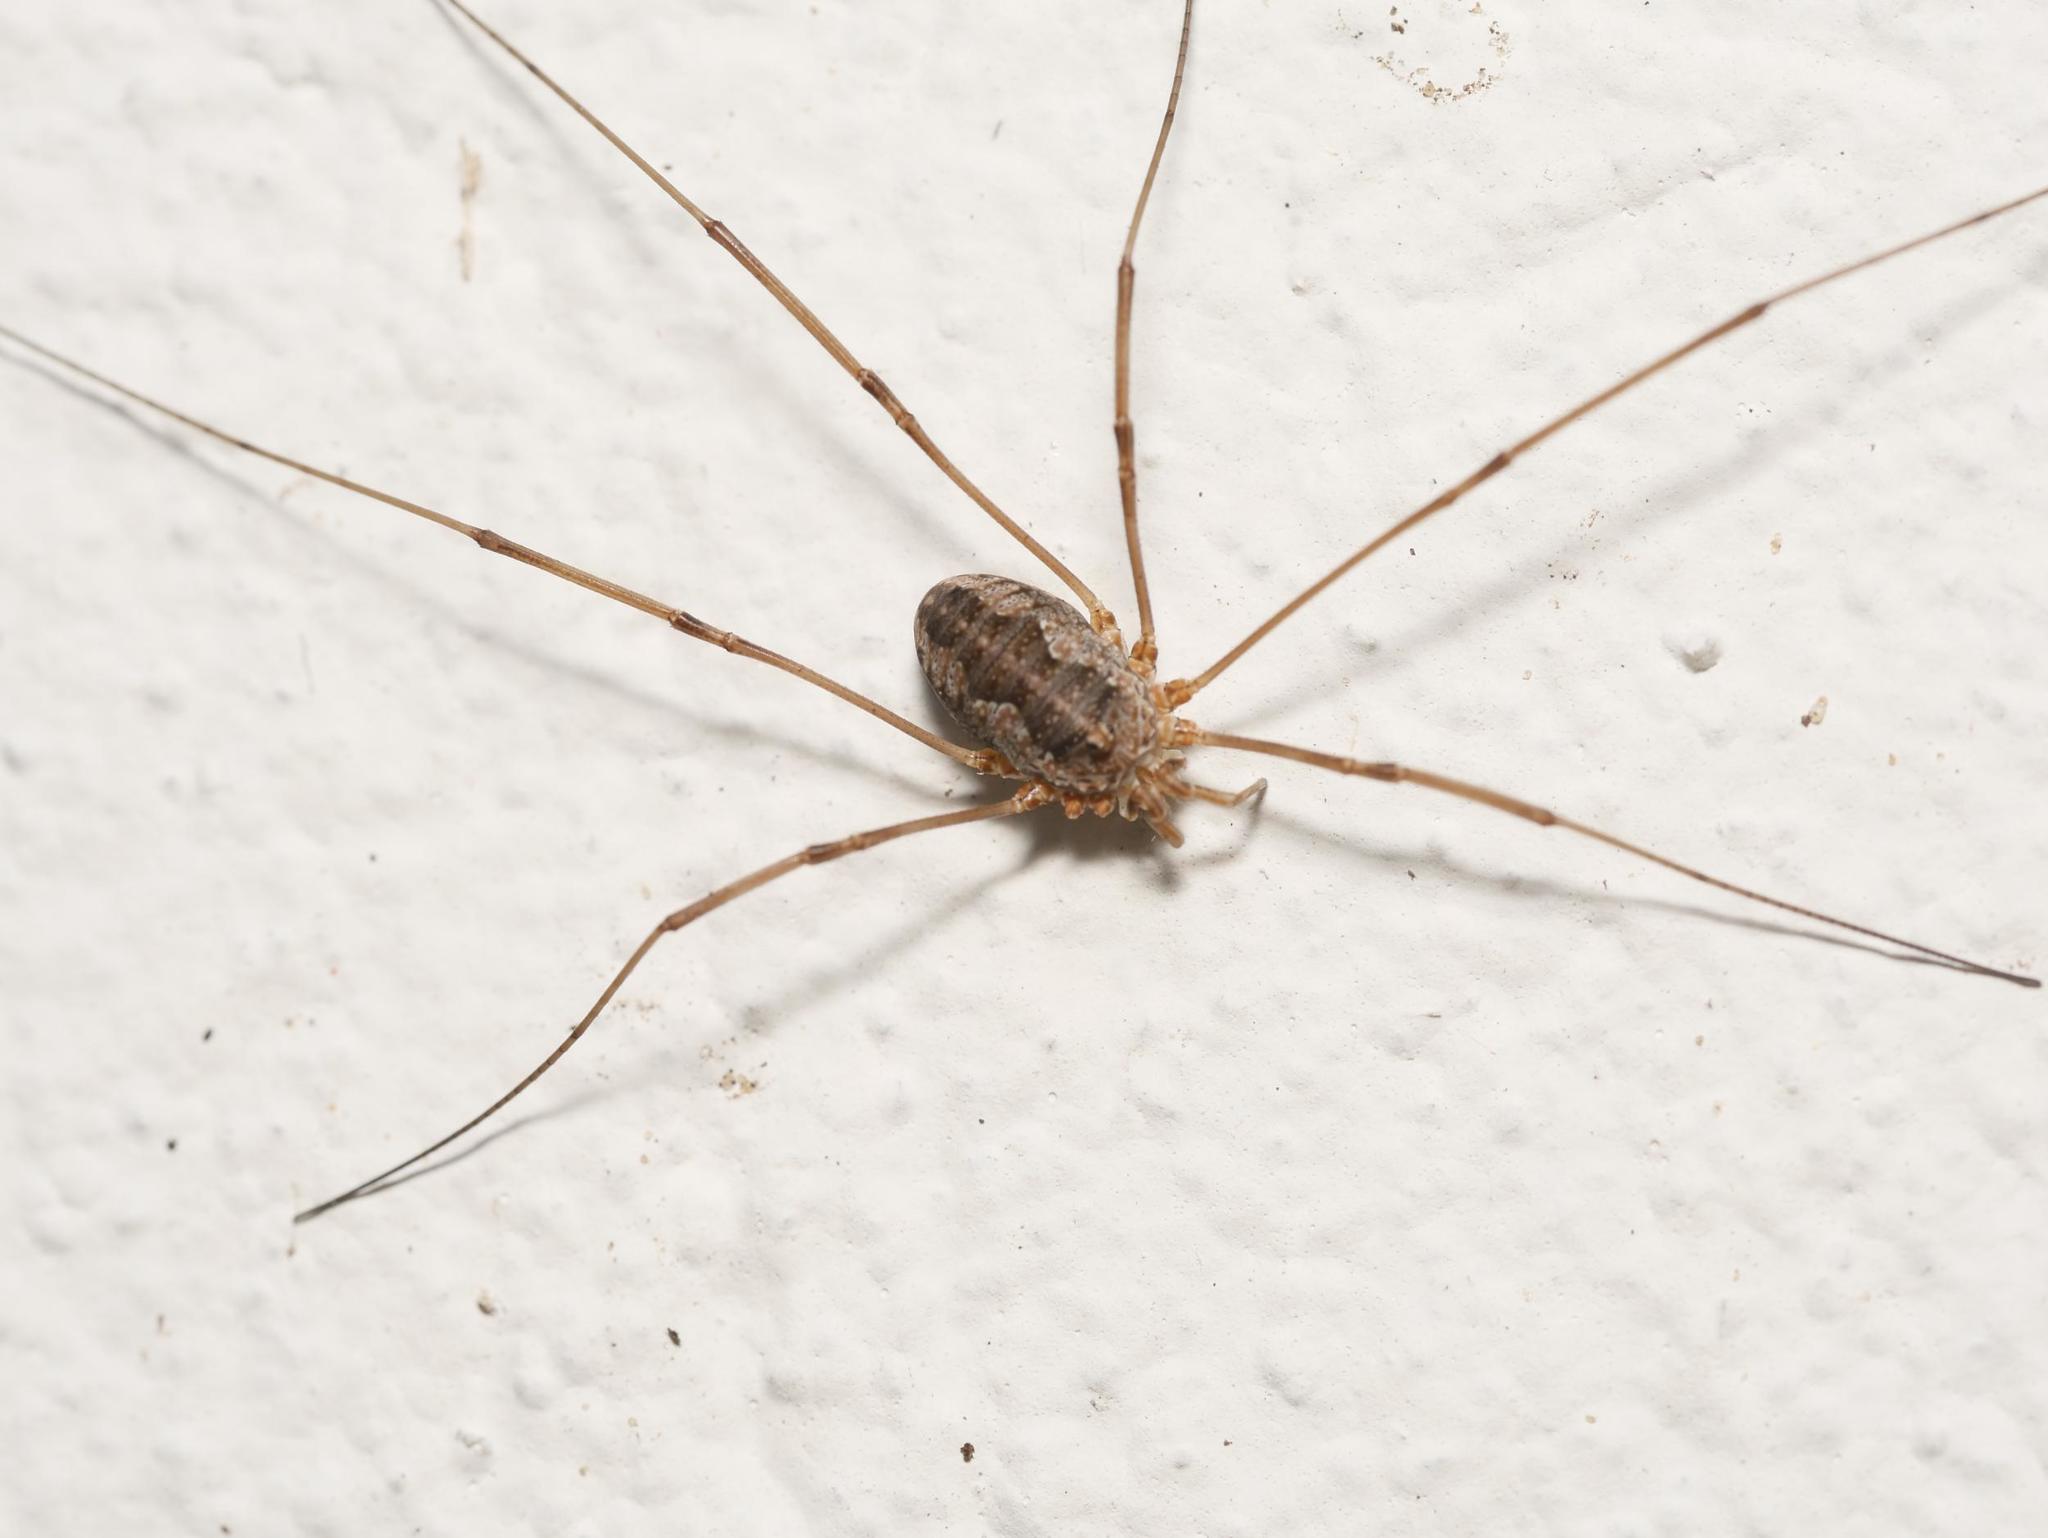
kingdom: Animalia
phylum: Arthropoda
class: Arachnida
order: Opiliones
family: Phalangiidae
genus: Phalangium
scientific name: Phalangium opilio
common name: Daddy longleg
